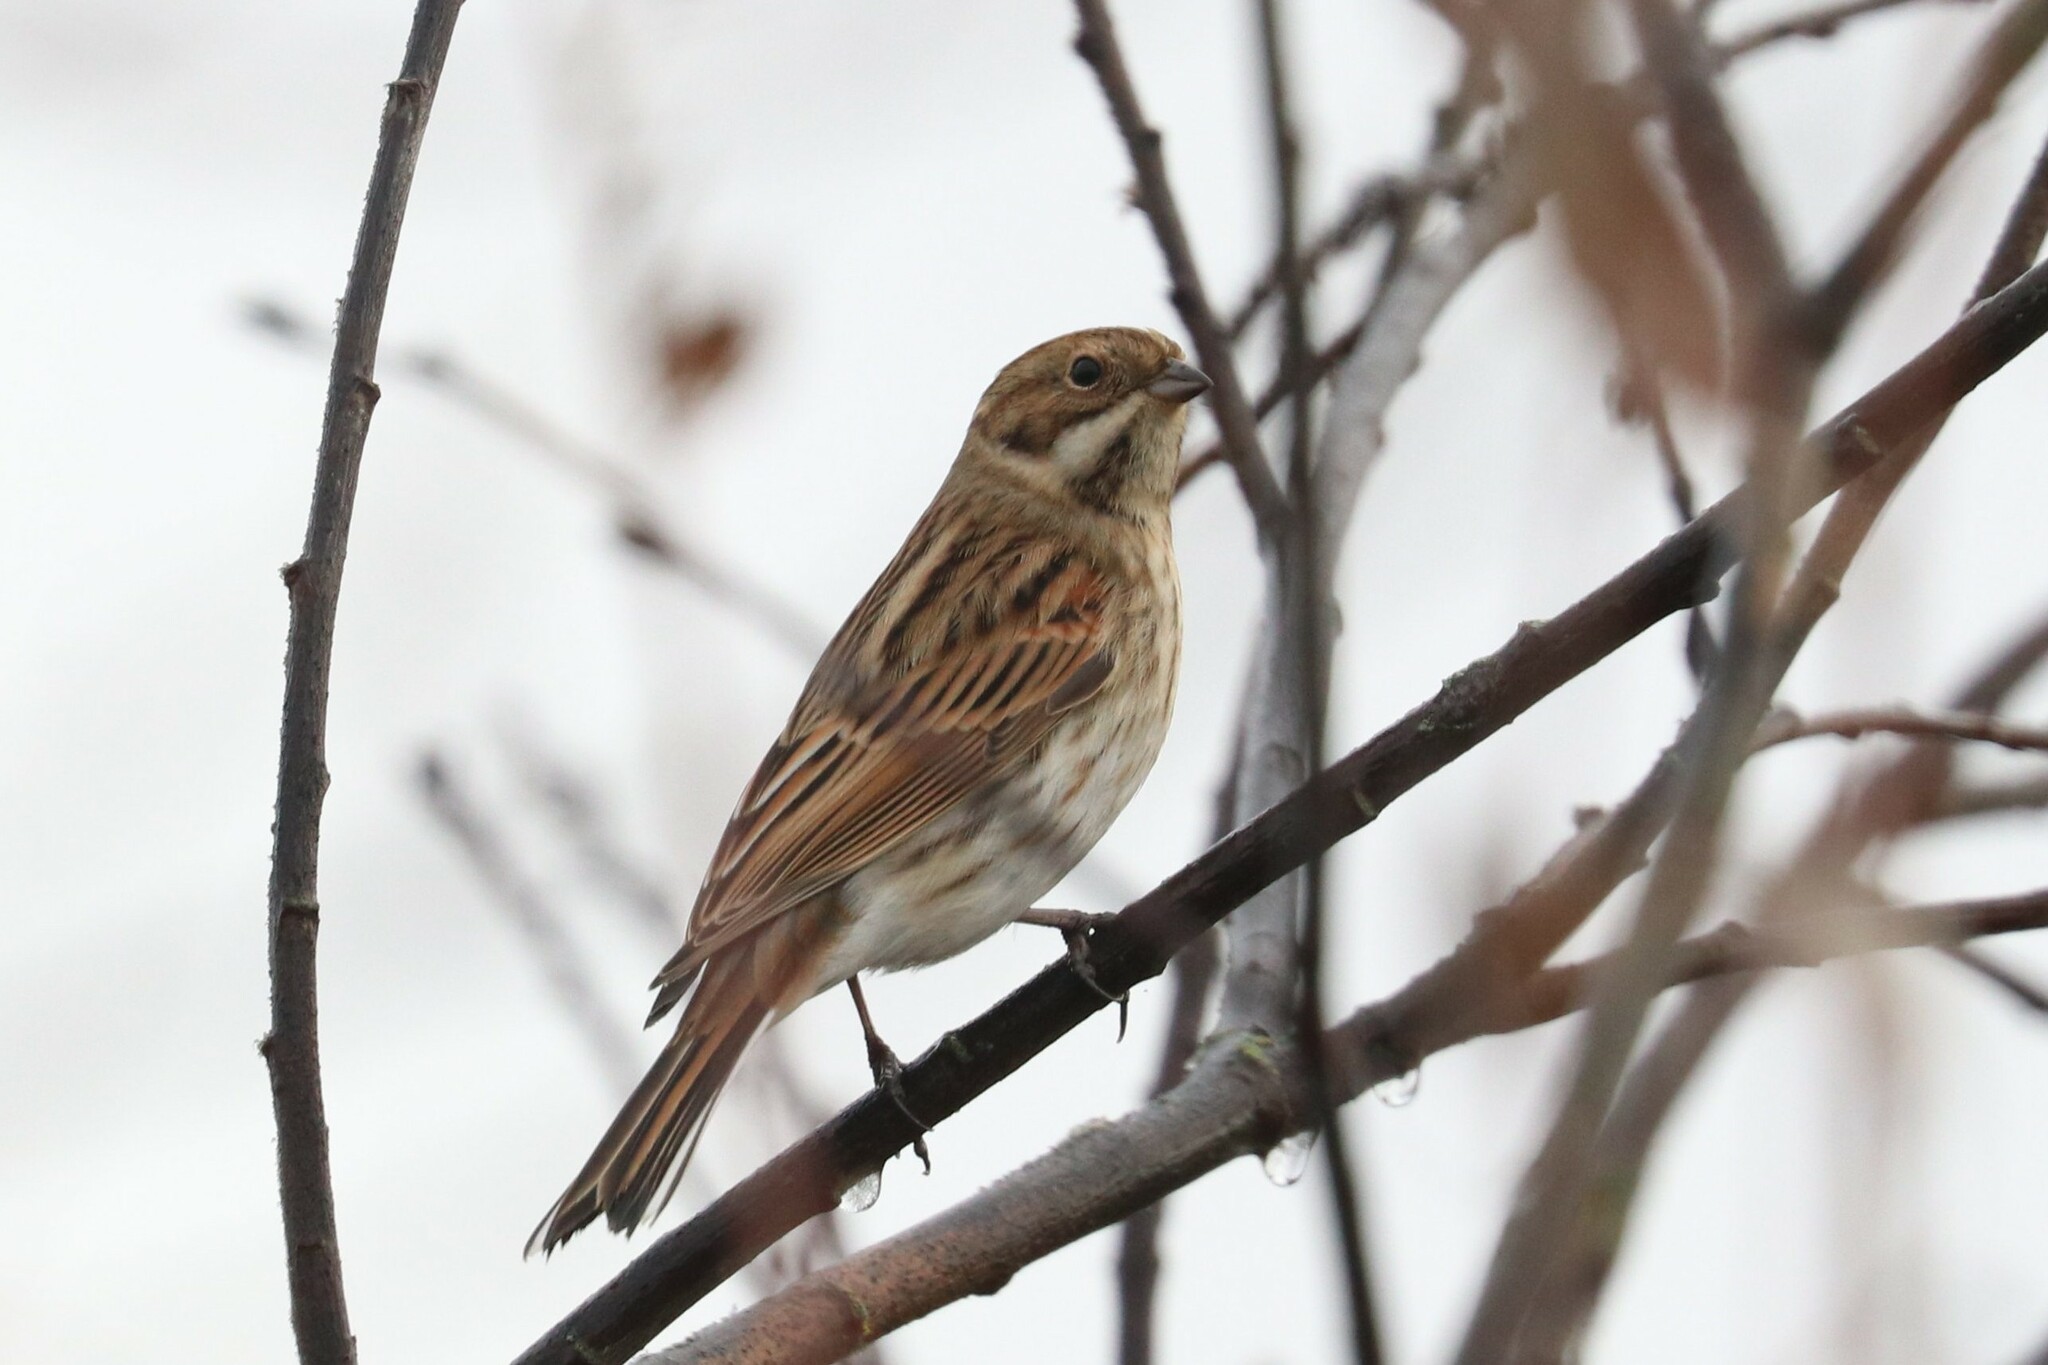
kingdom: Animalia
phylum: Chordata
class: Aves
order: Passeriformes
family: Emberizidae
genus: Emberiza
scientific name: Emberiza schoeniclus
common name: Reed bunting
